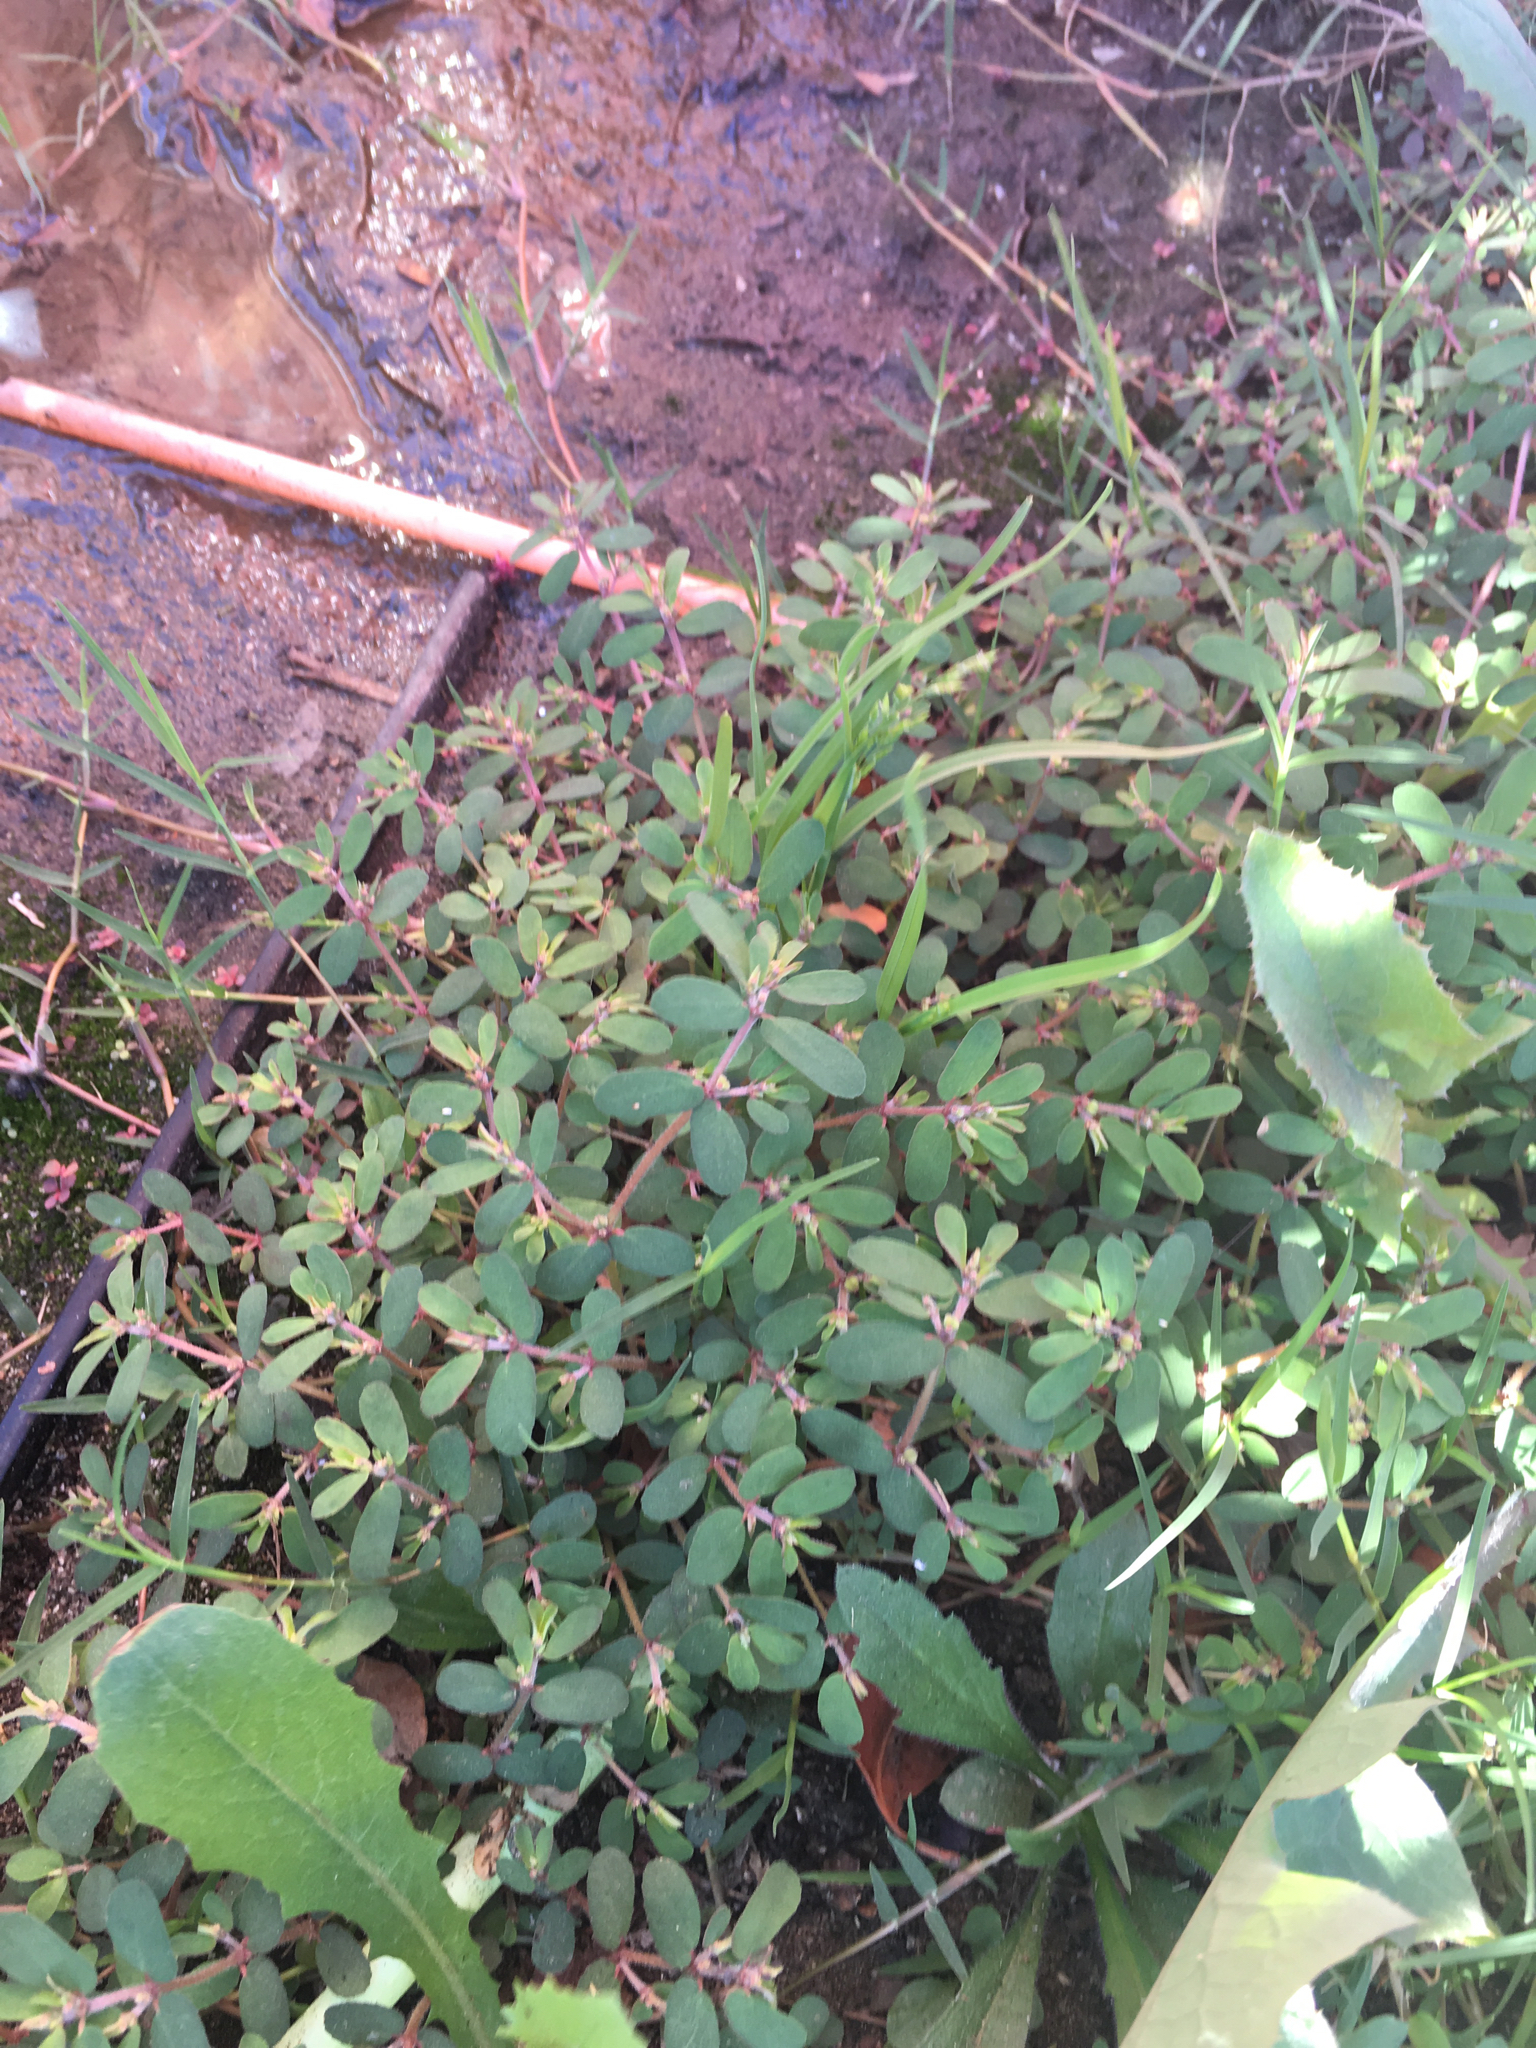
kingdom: Plantae
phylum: Tracheophyta
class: Magnoliopsida
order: Malpighiales
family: Euphorbiaceae
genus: Euphorbia
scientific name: Euphorbia maculata
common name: Spotted spurge
